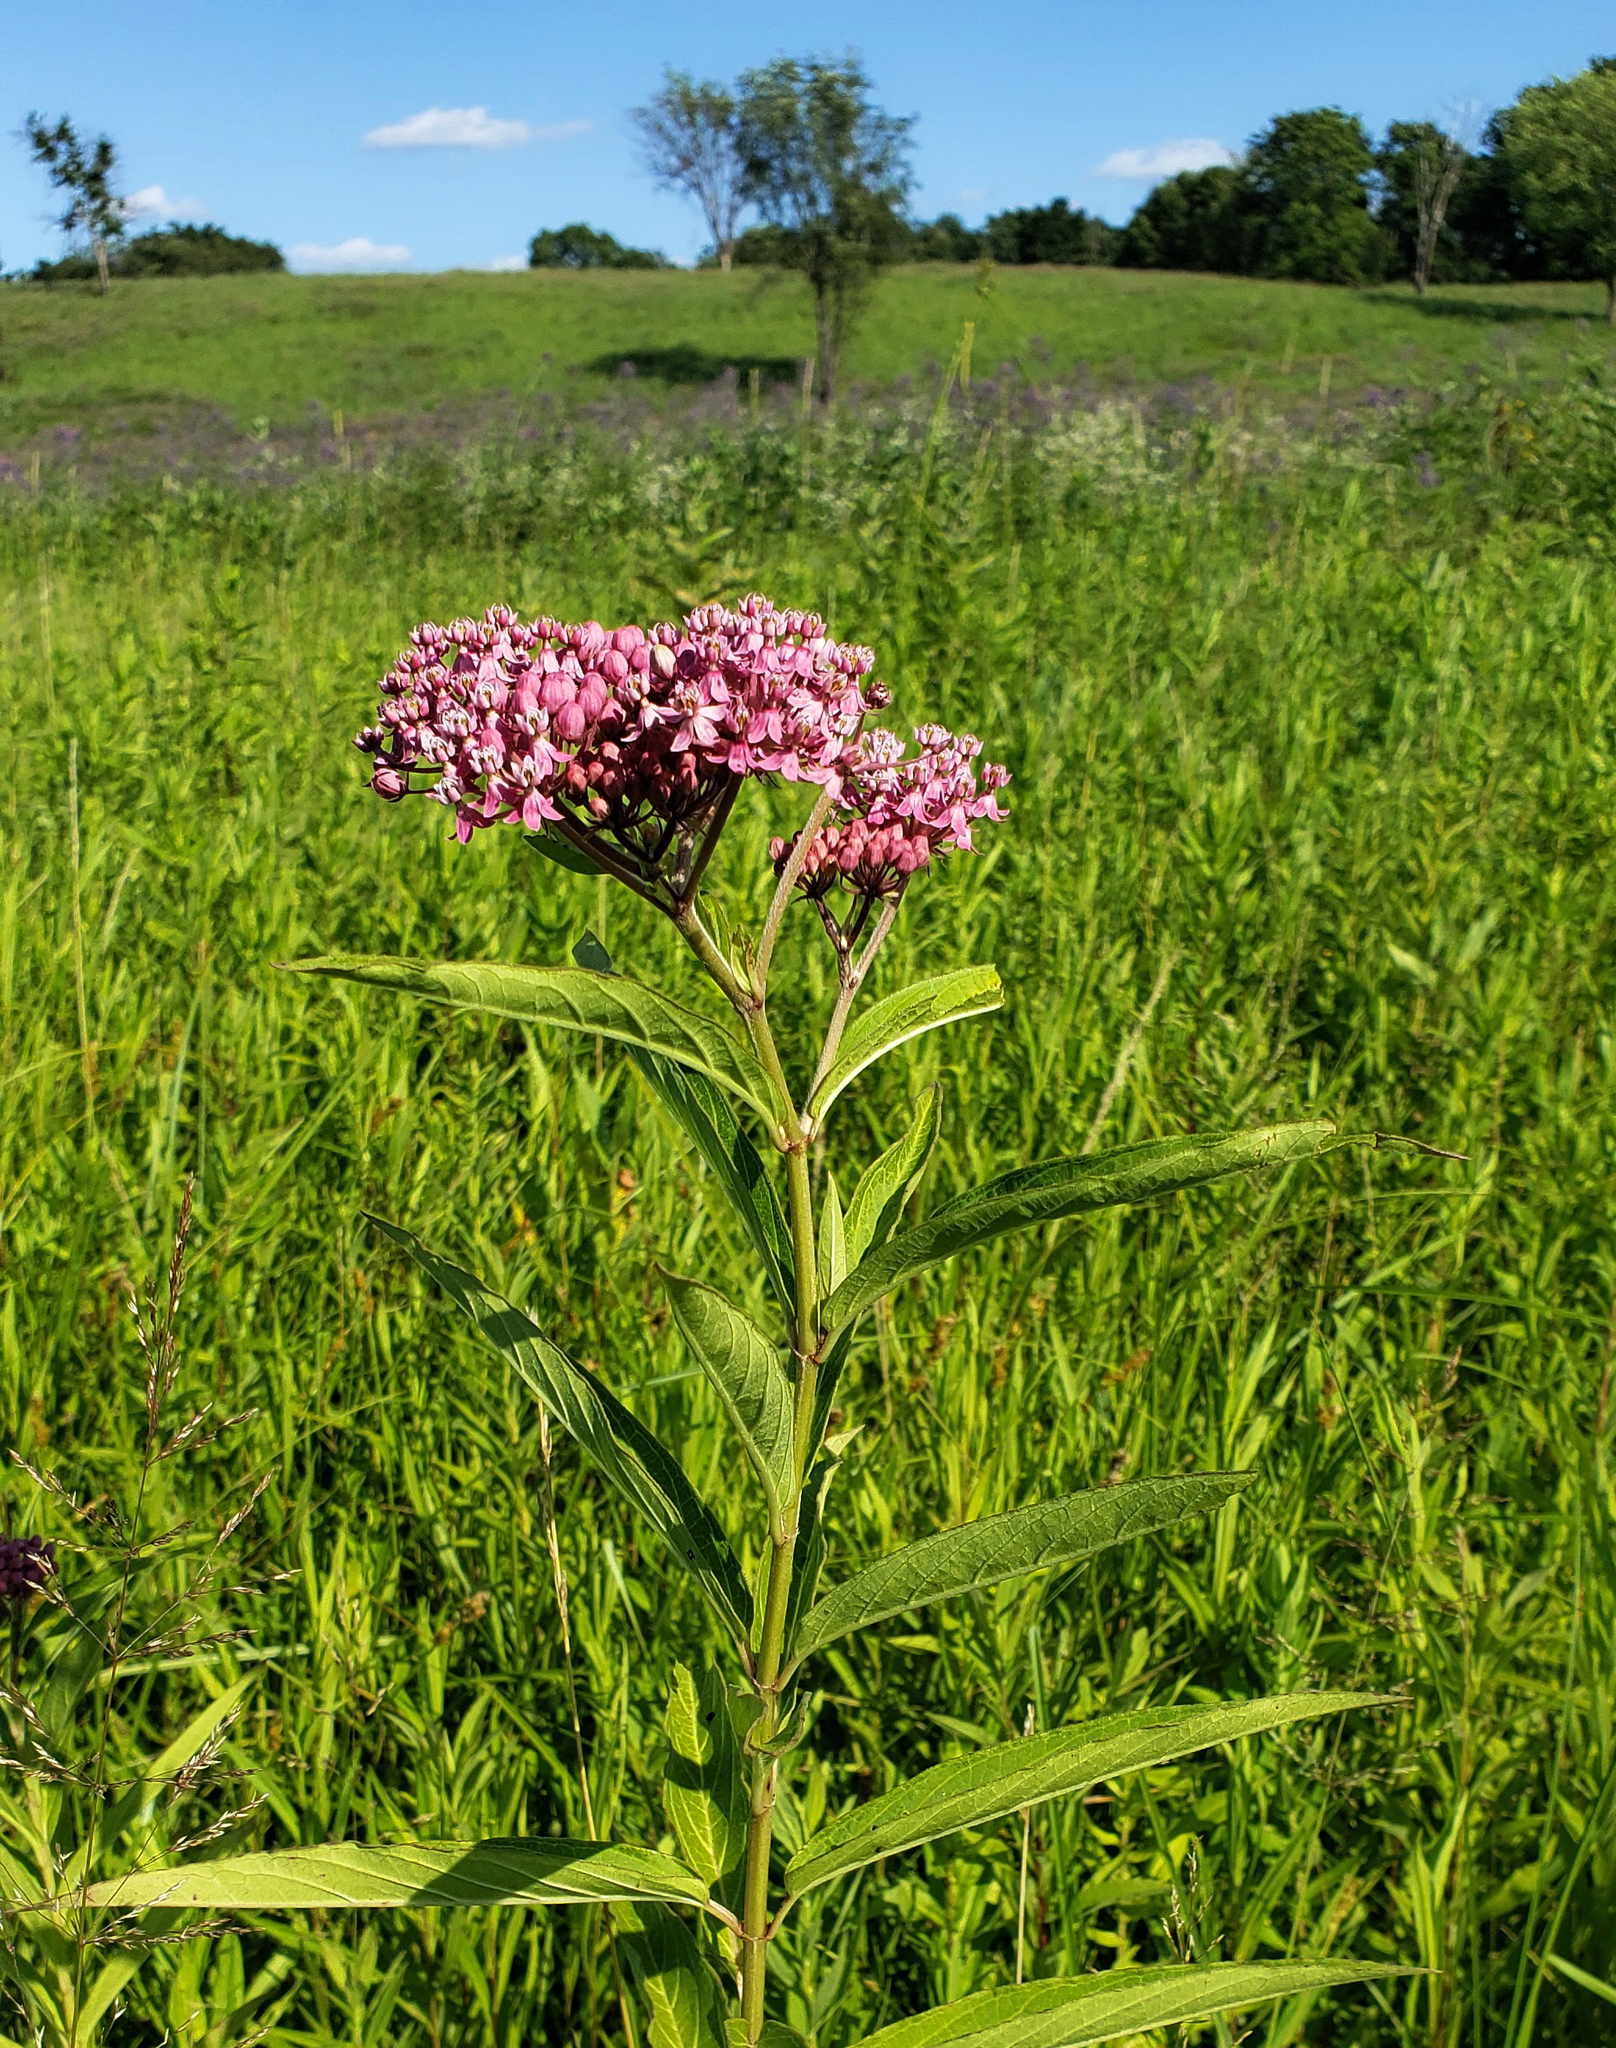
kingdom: Plantae
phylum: Tracheophyta
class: Magnoliopsida
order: Gentianales
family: Apocynaceae
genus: Asclepias
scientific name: Asclepias incarnata
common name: Swamp milkweed
